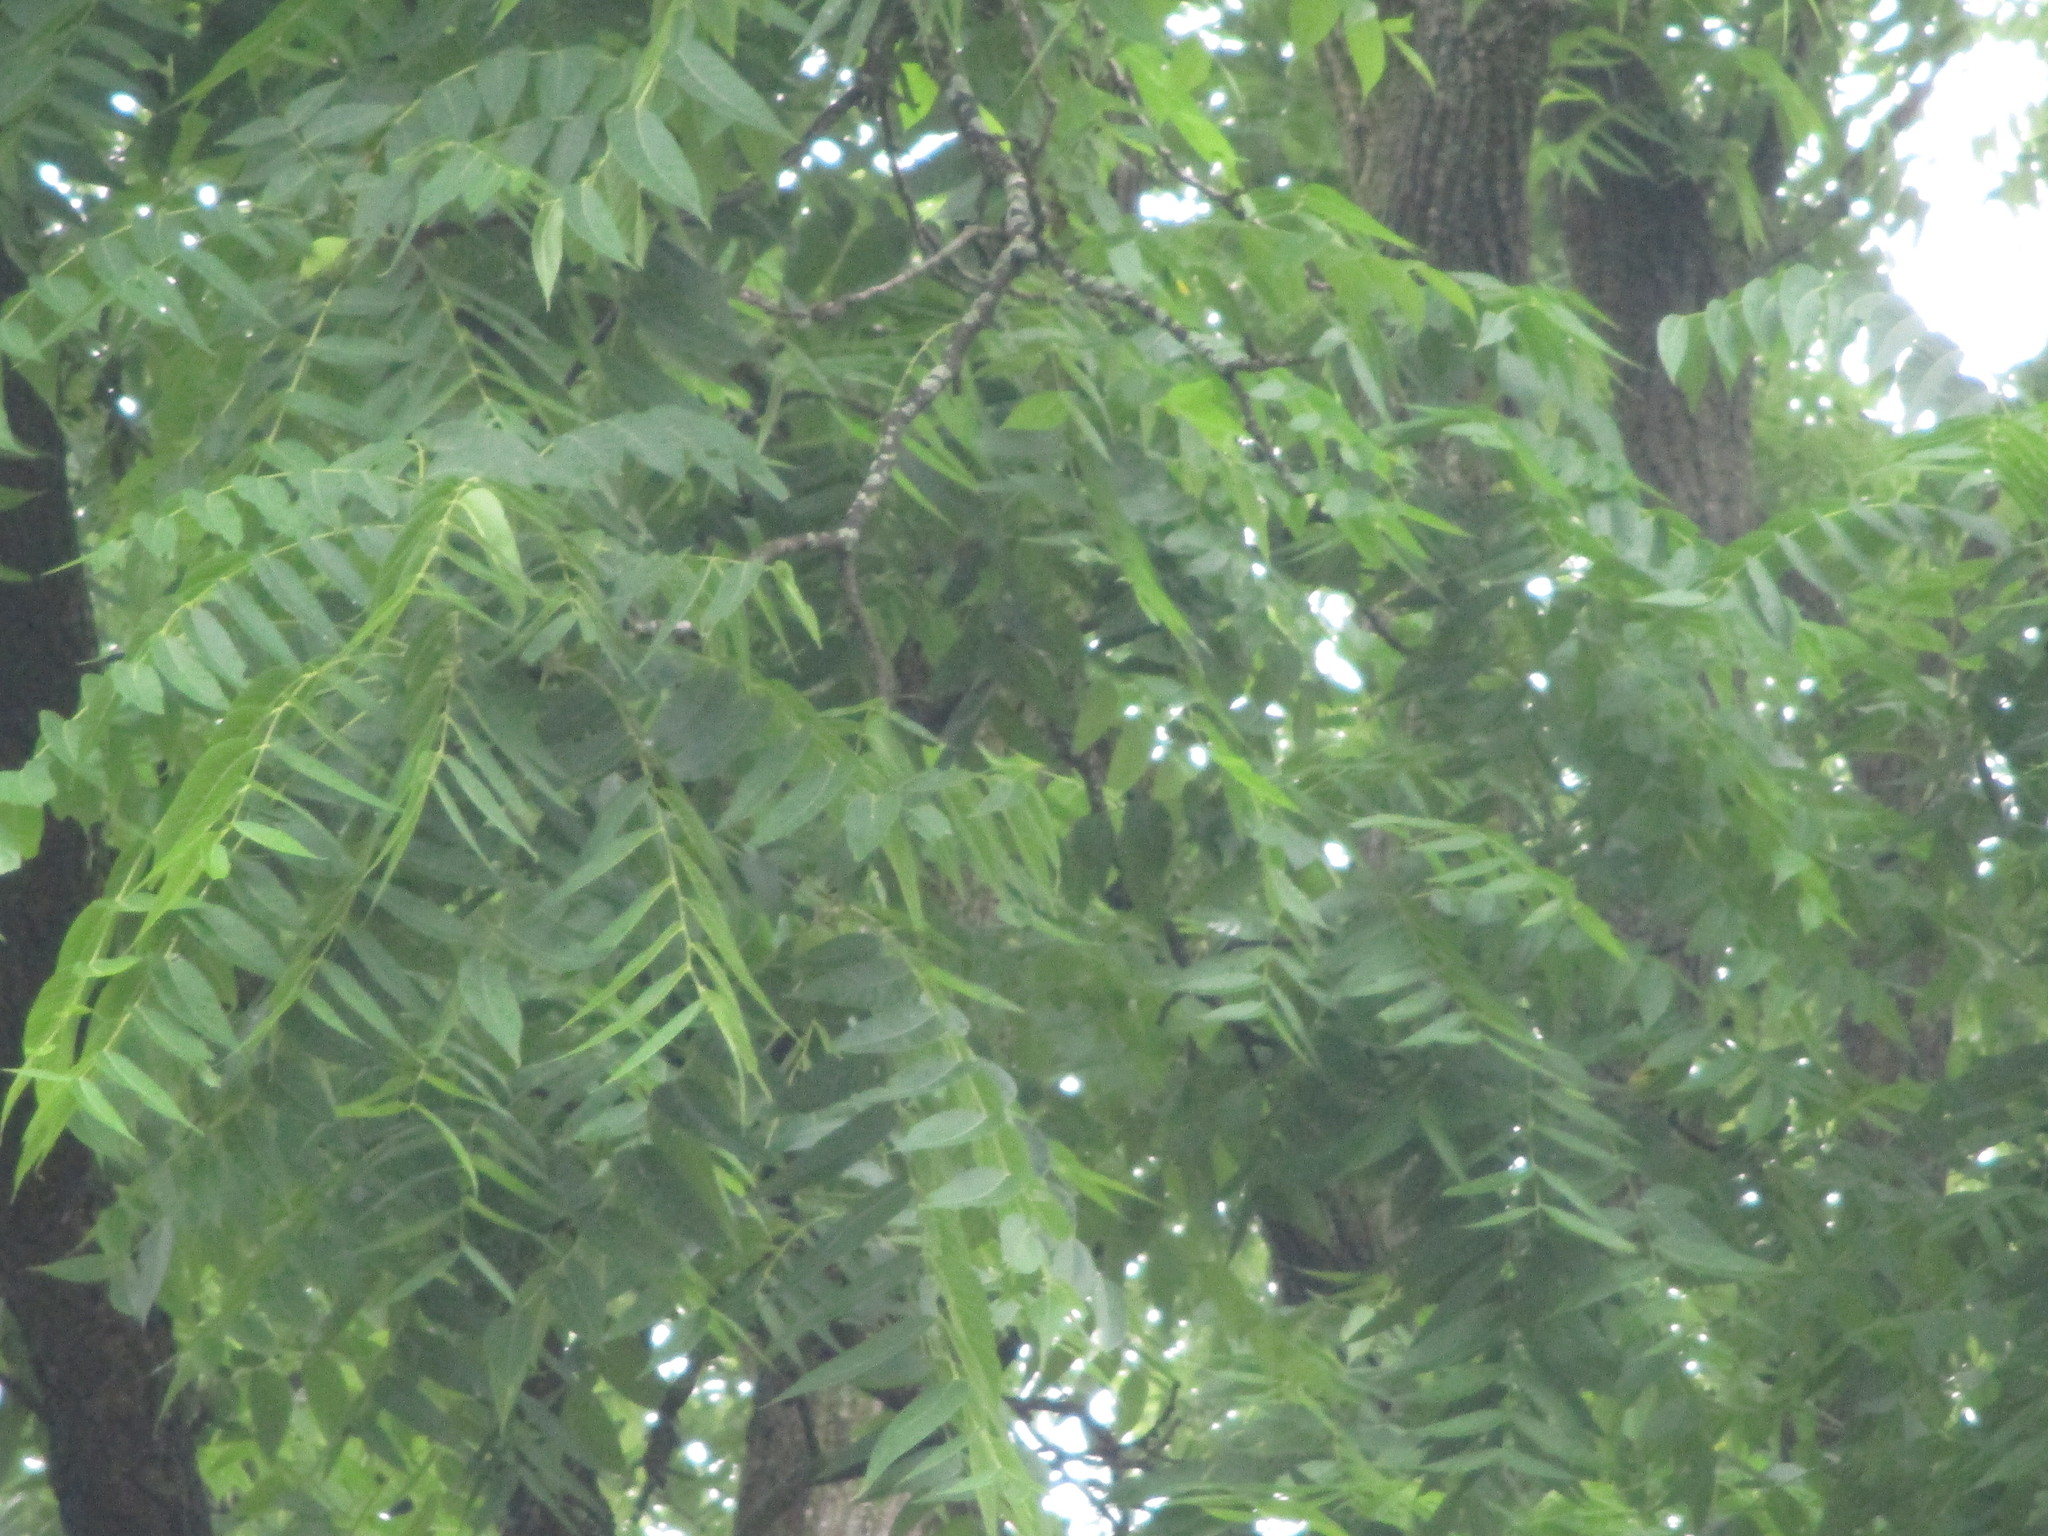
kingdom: Plantae
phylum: Tracheophyta
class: Magnoliopsida
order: Fagales
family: Juglandaceae
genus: Juglans
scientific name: Juglans nigra
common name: Black walnut
